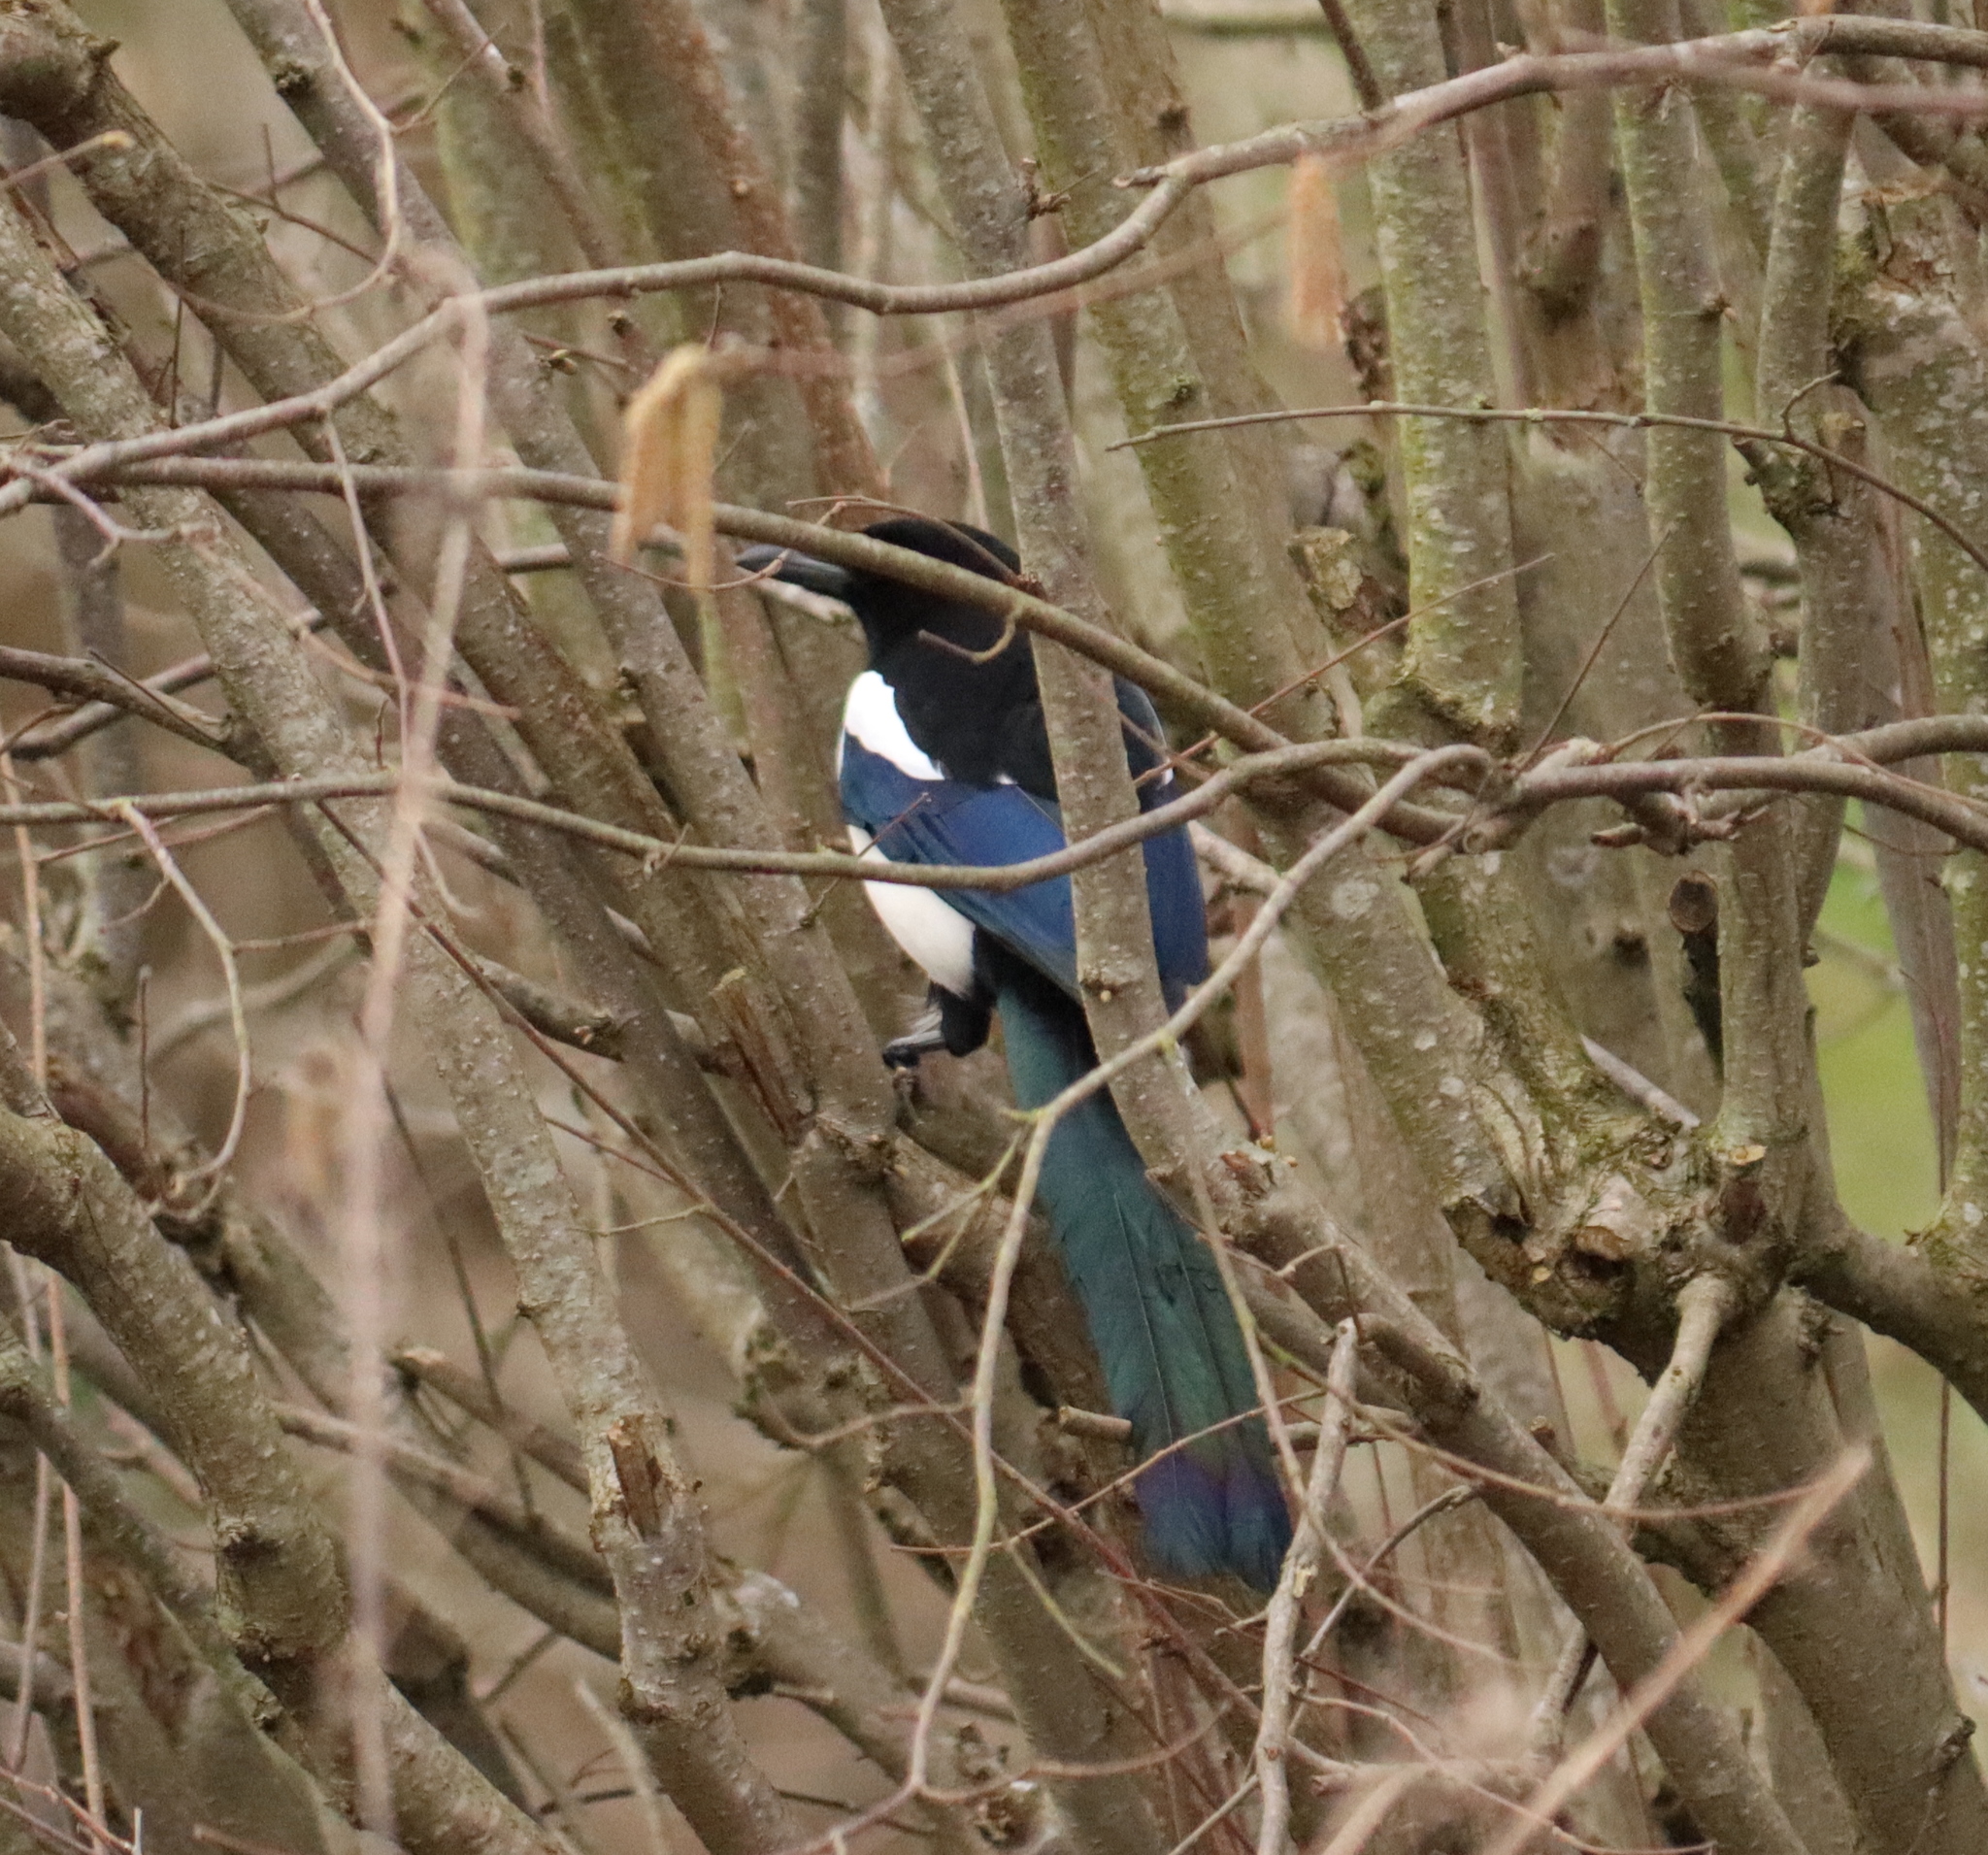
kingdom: Animalia
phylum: Chordata
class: Aves
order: Passeriformes
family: Corvidae
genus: Pica
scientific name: Pica pica
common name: Eurasian magpie
